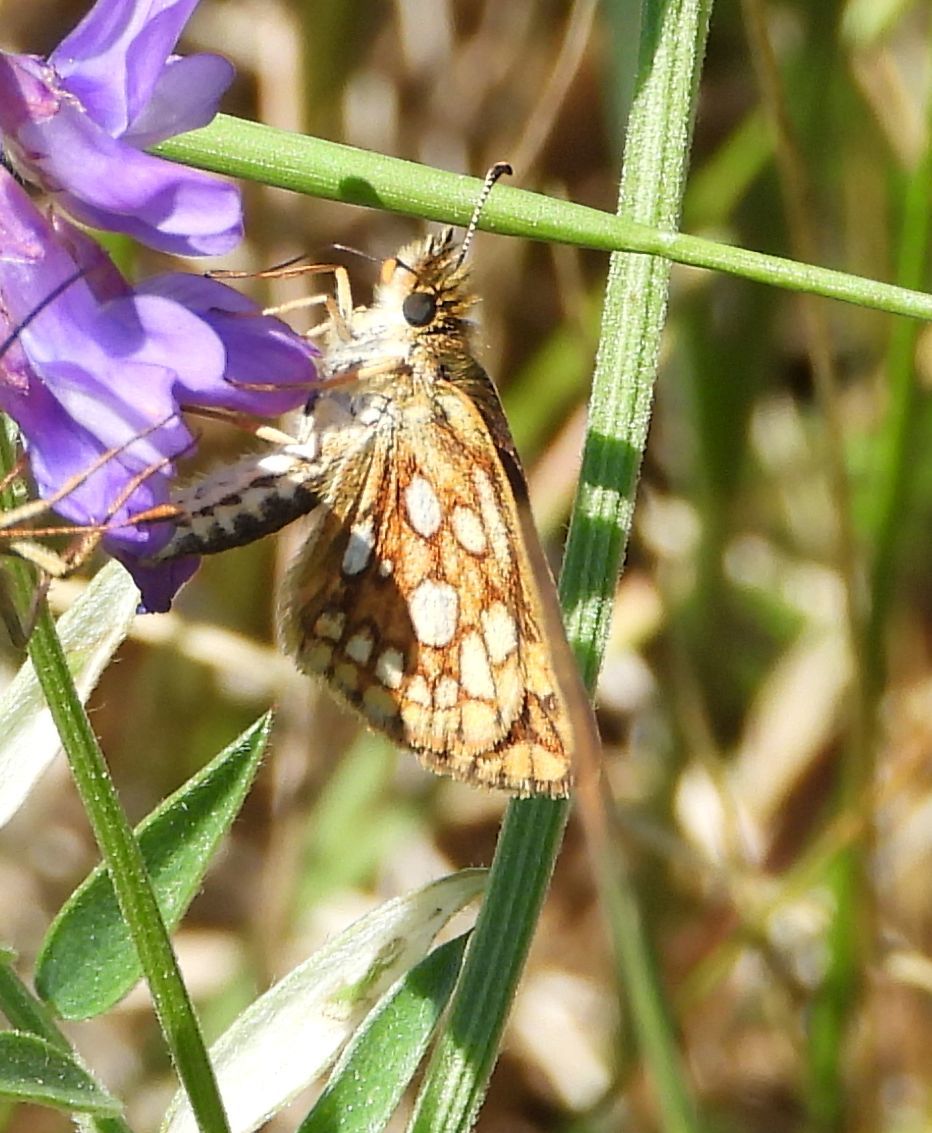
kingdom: Animalia
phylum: Arthropoda
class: Insecta
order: Lepidoptera
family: Hesperiidae
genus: Carterocephalus
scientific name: Carterocephalus mandan
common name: Arctic skipperling
